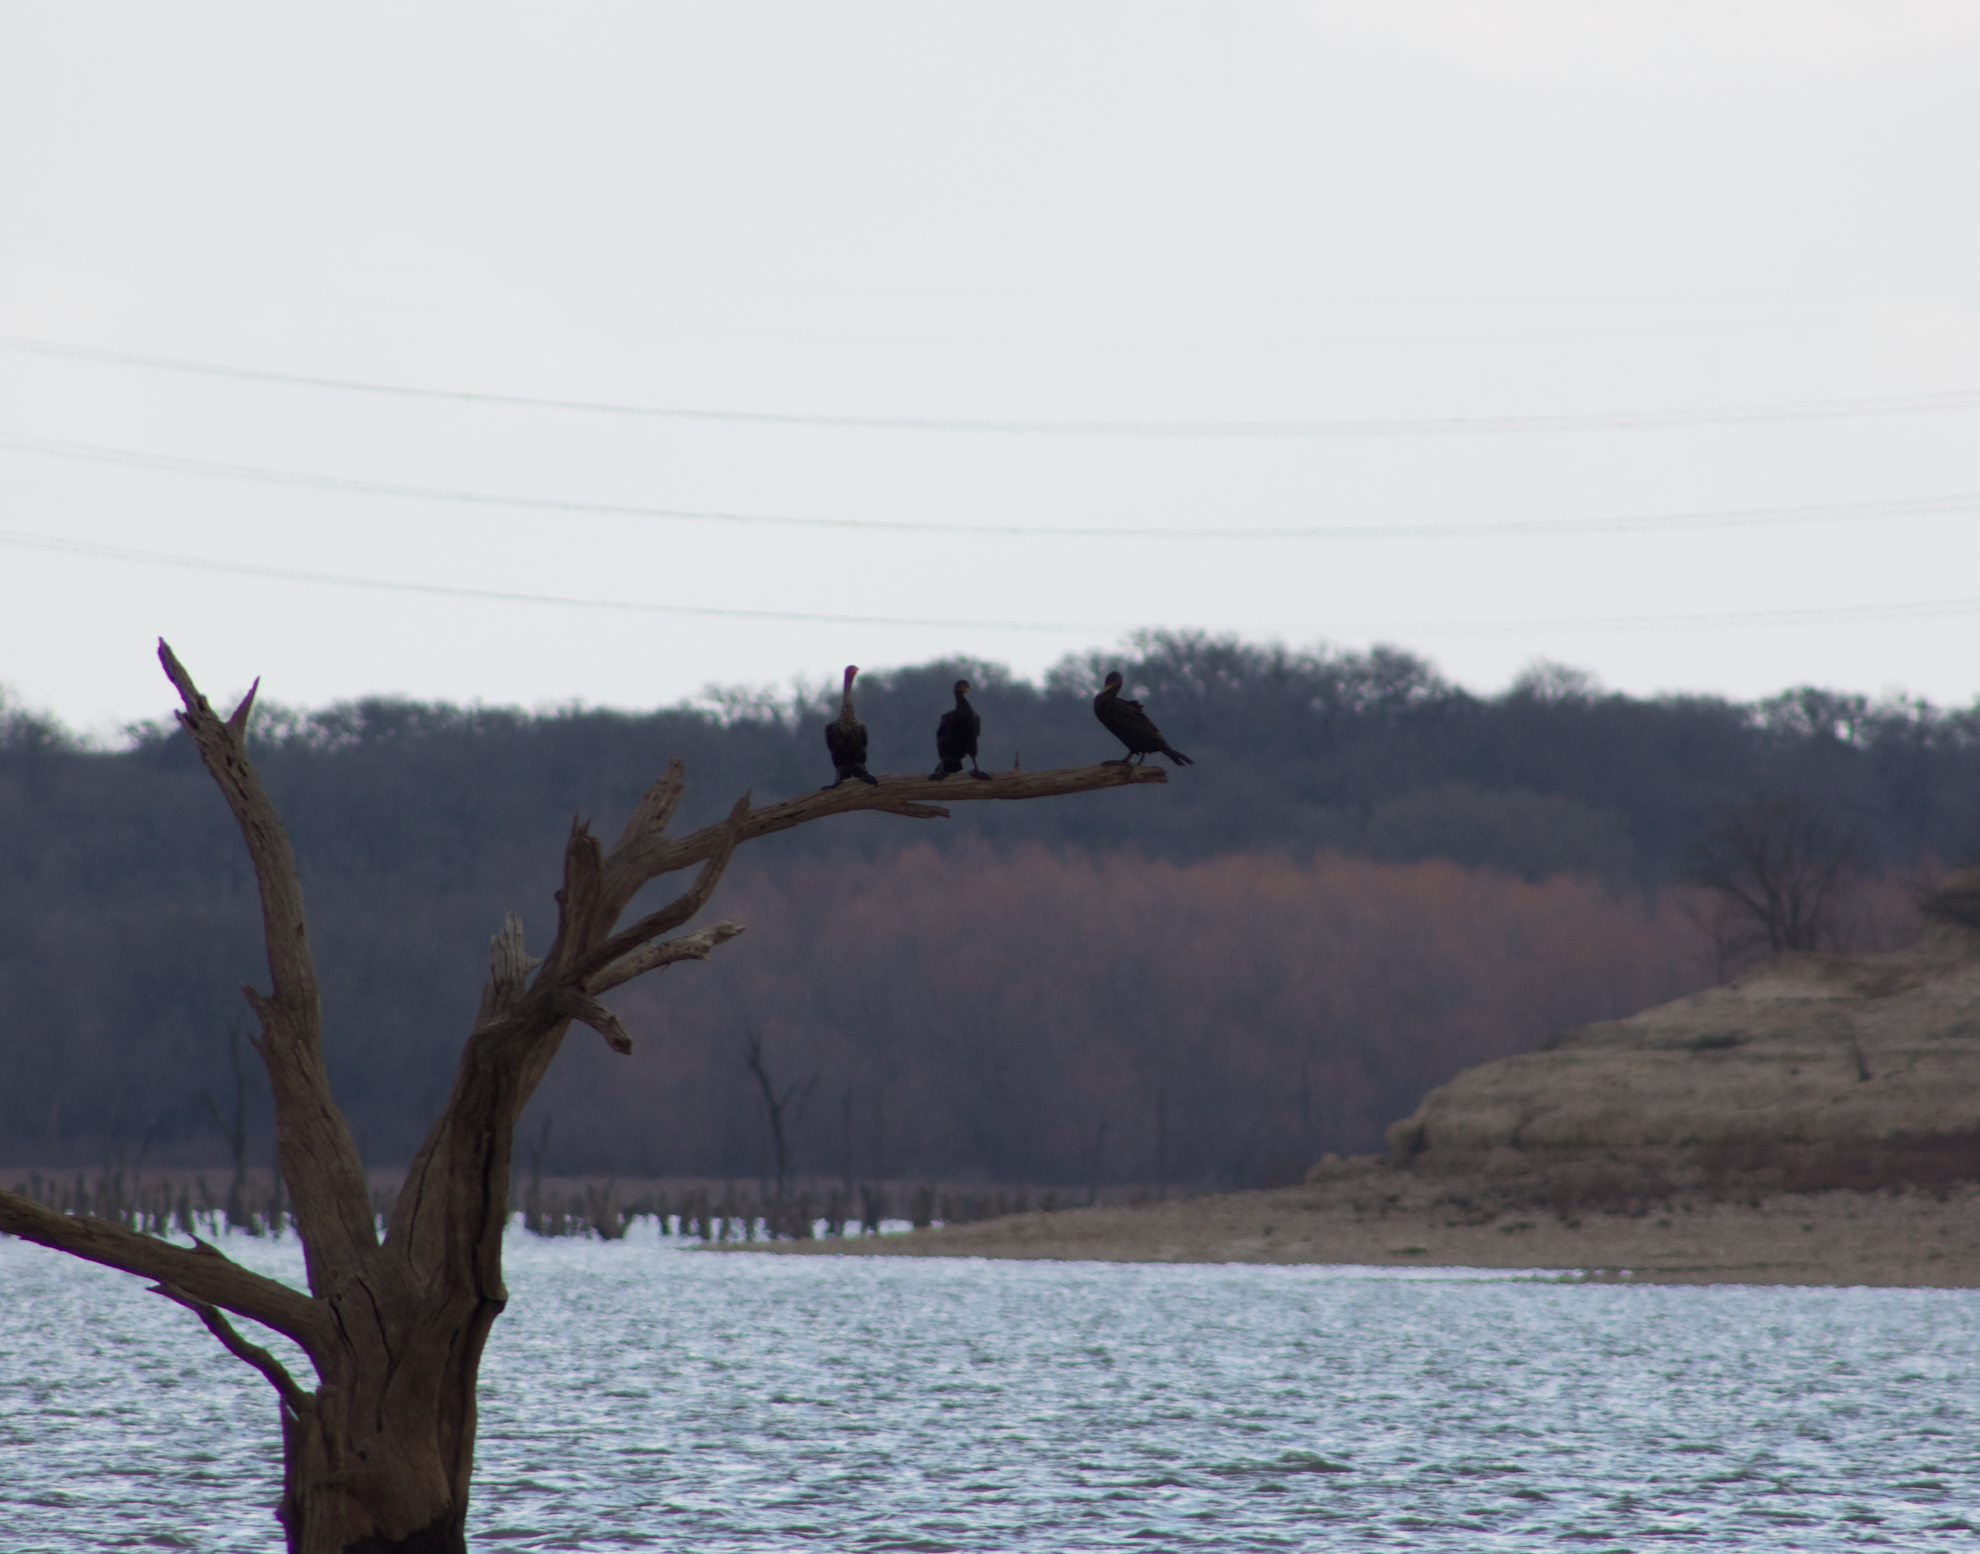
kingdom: Animalia
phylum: Chordata
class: Aves
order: Suliformes
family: Phalacrocoracidae
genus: Phalacrocorax
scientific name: Phalacrocorax auritus
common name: Double-crested cormorant
